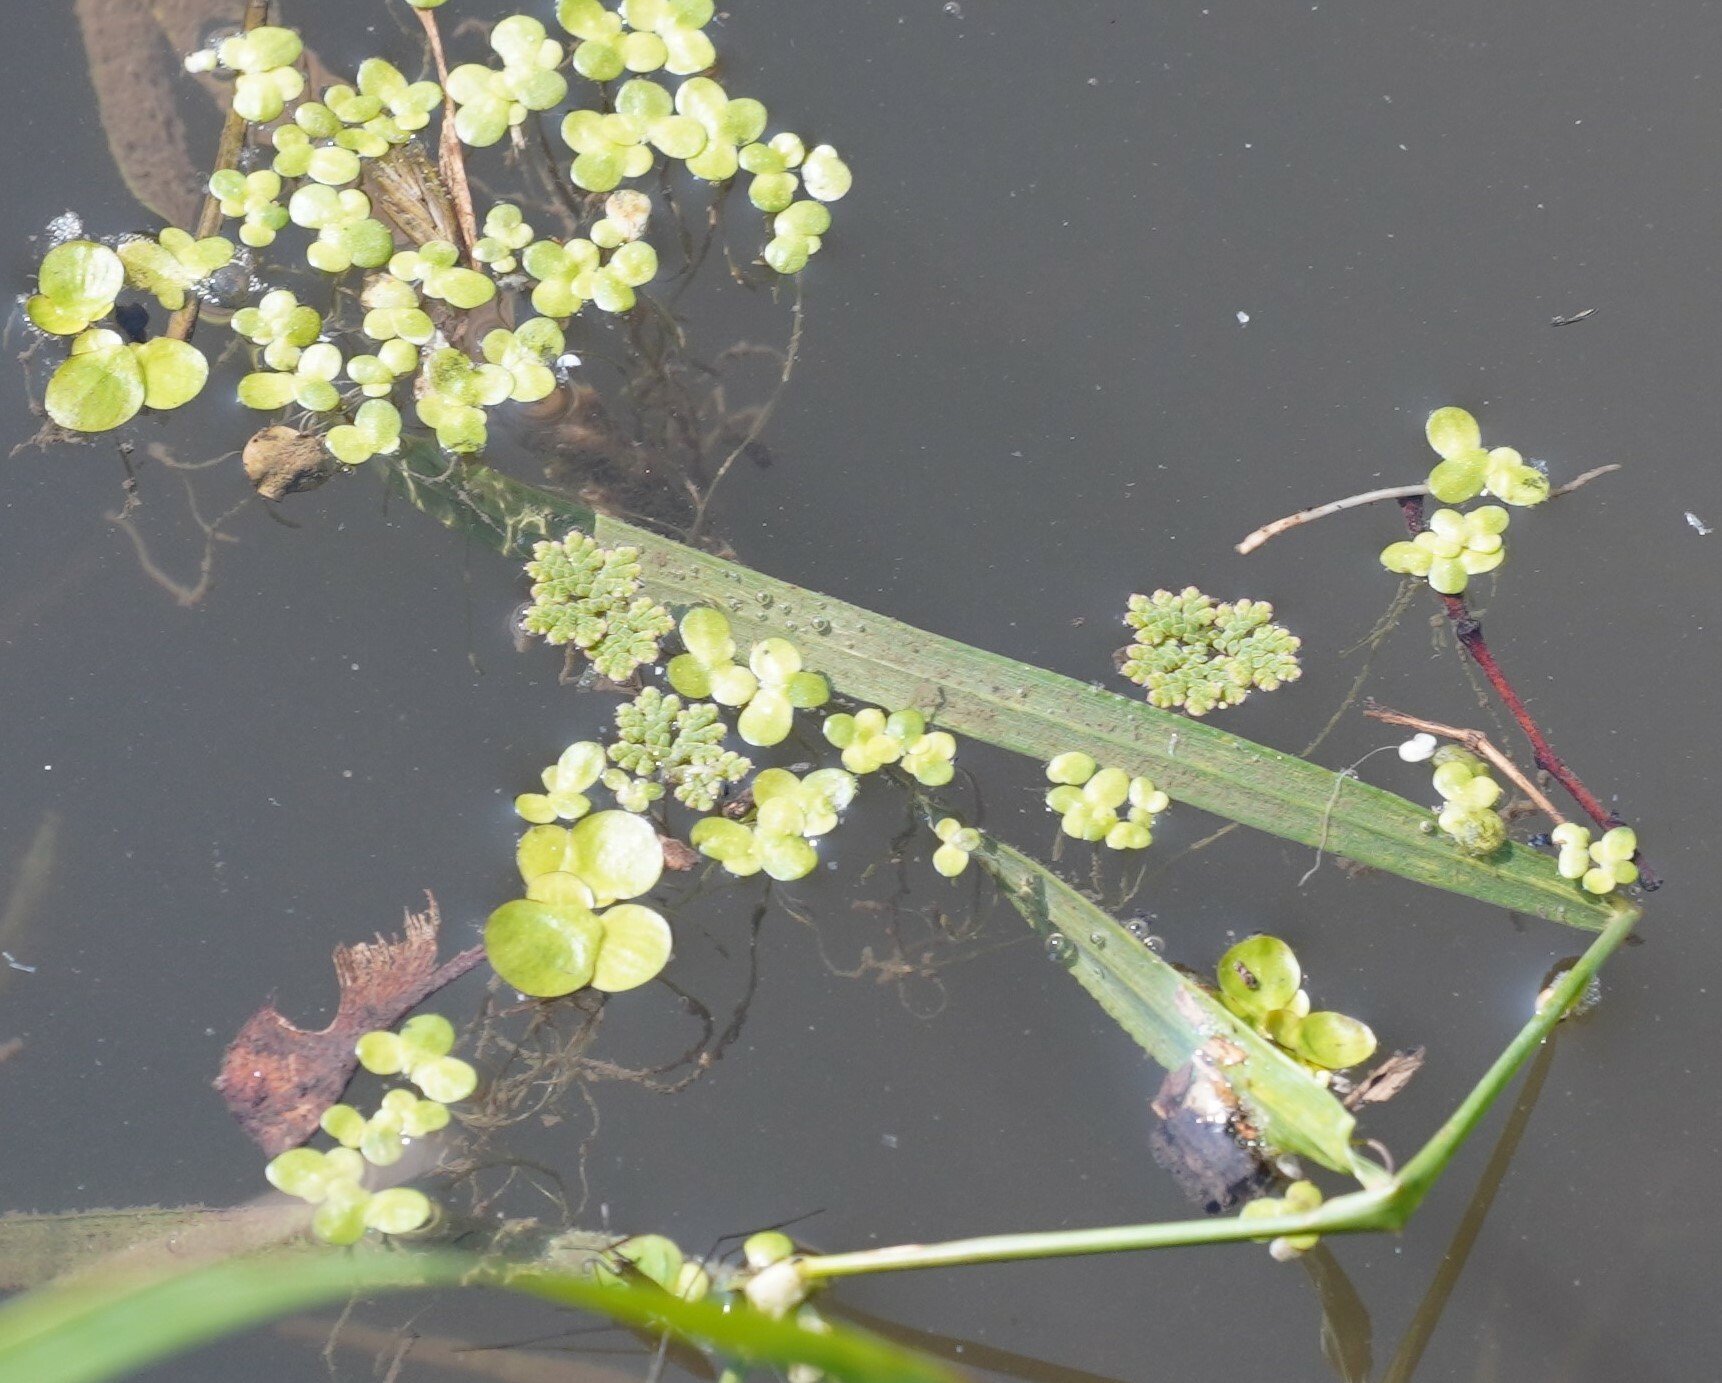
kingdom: Plantae
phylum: Tracheophyta
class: Polypodiopsida
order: Salviniales
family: Salviniaceae
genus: Azolla
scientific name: Azolla filiculoides
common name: Water fern
